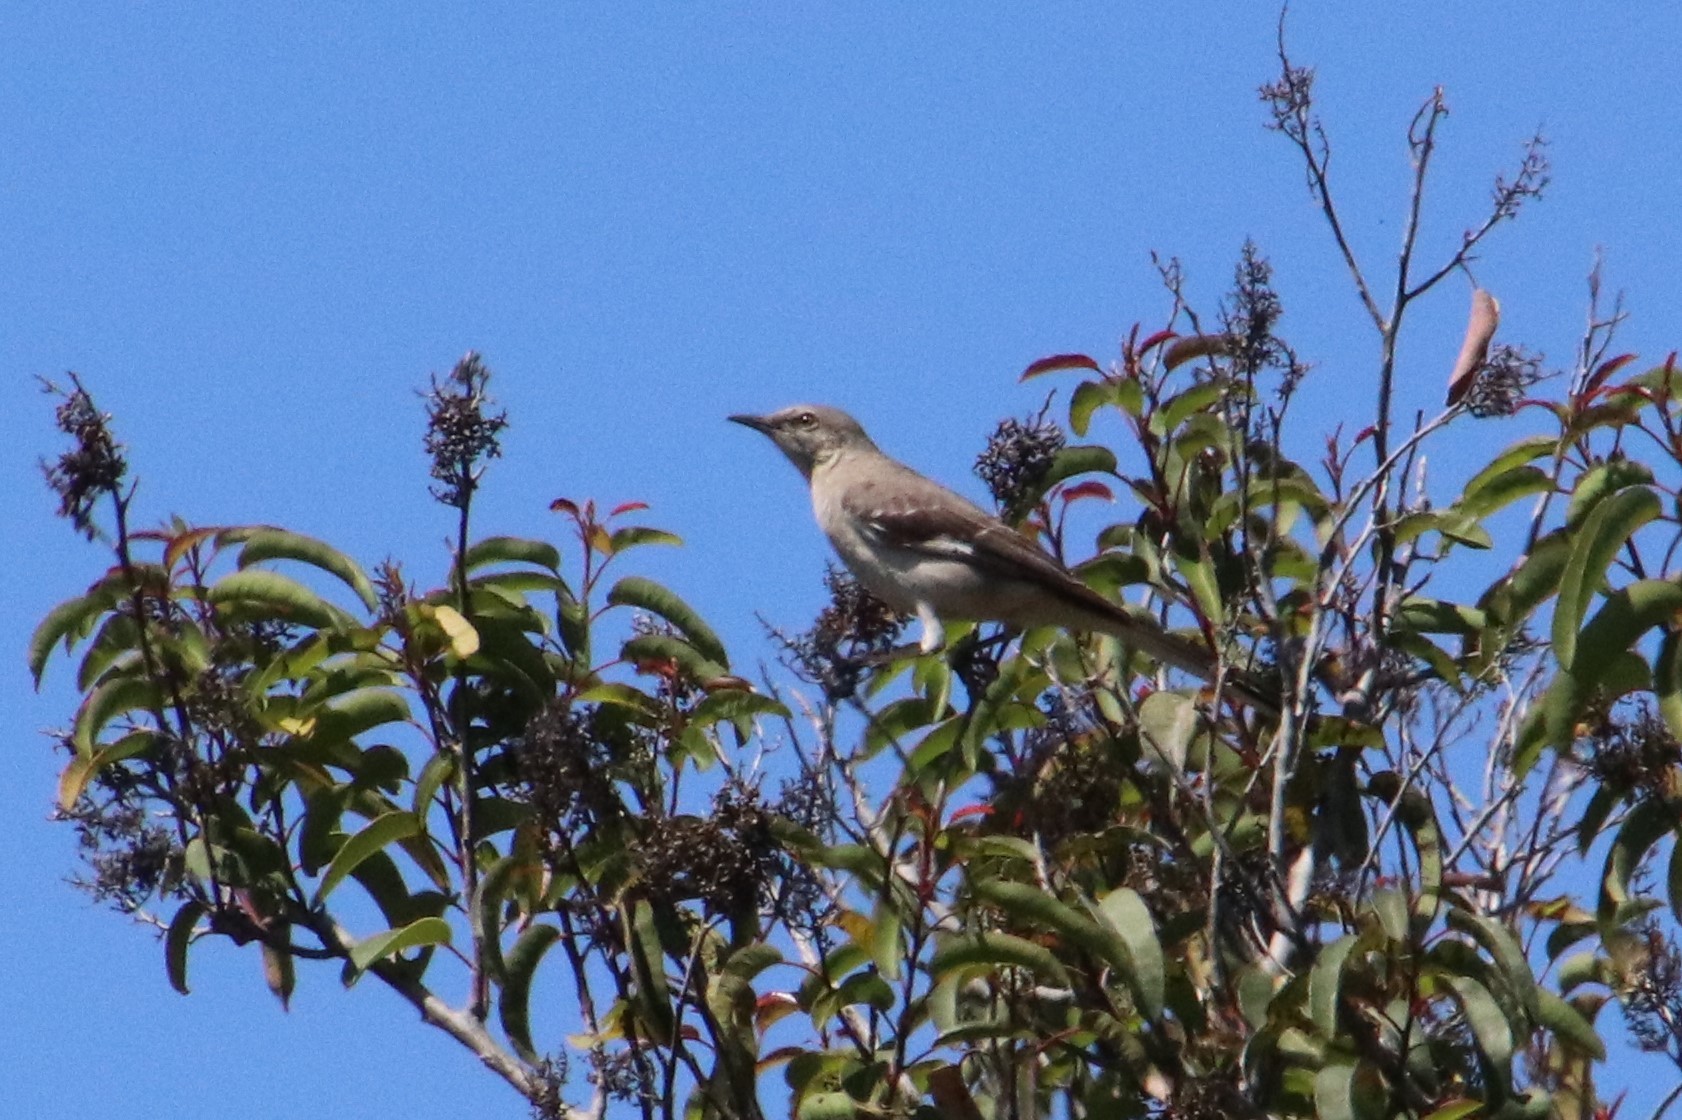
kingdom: Animalia
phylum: Chordata
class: Aves
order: Passeriformes
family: Mimidae
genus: Mimus
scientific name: Mimus polyglottos
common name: Northern mockingbird
